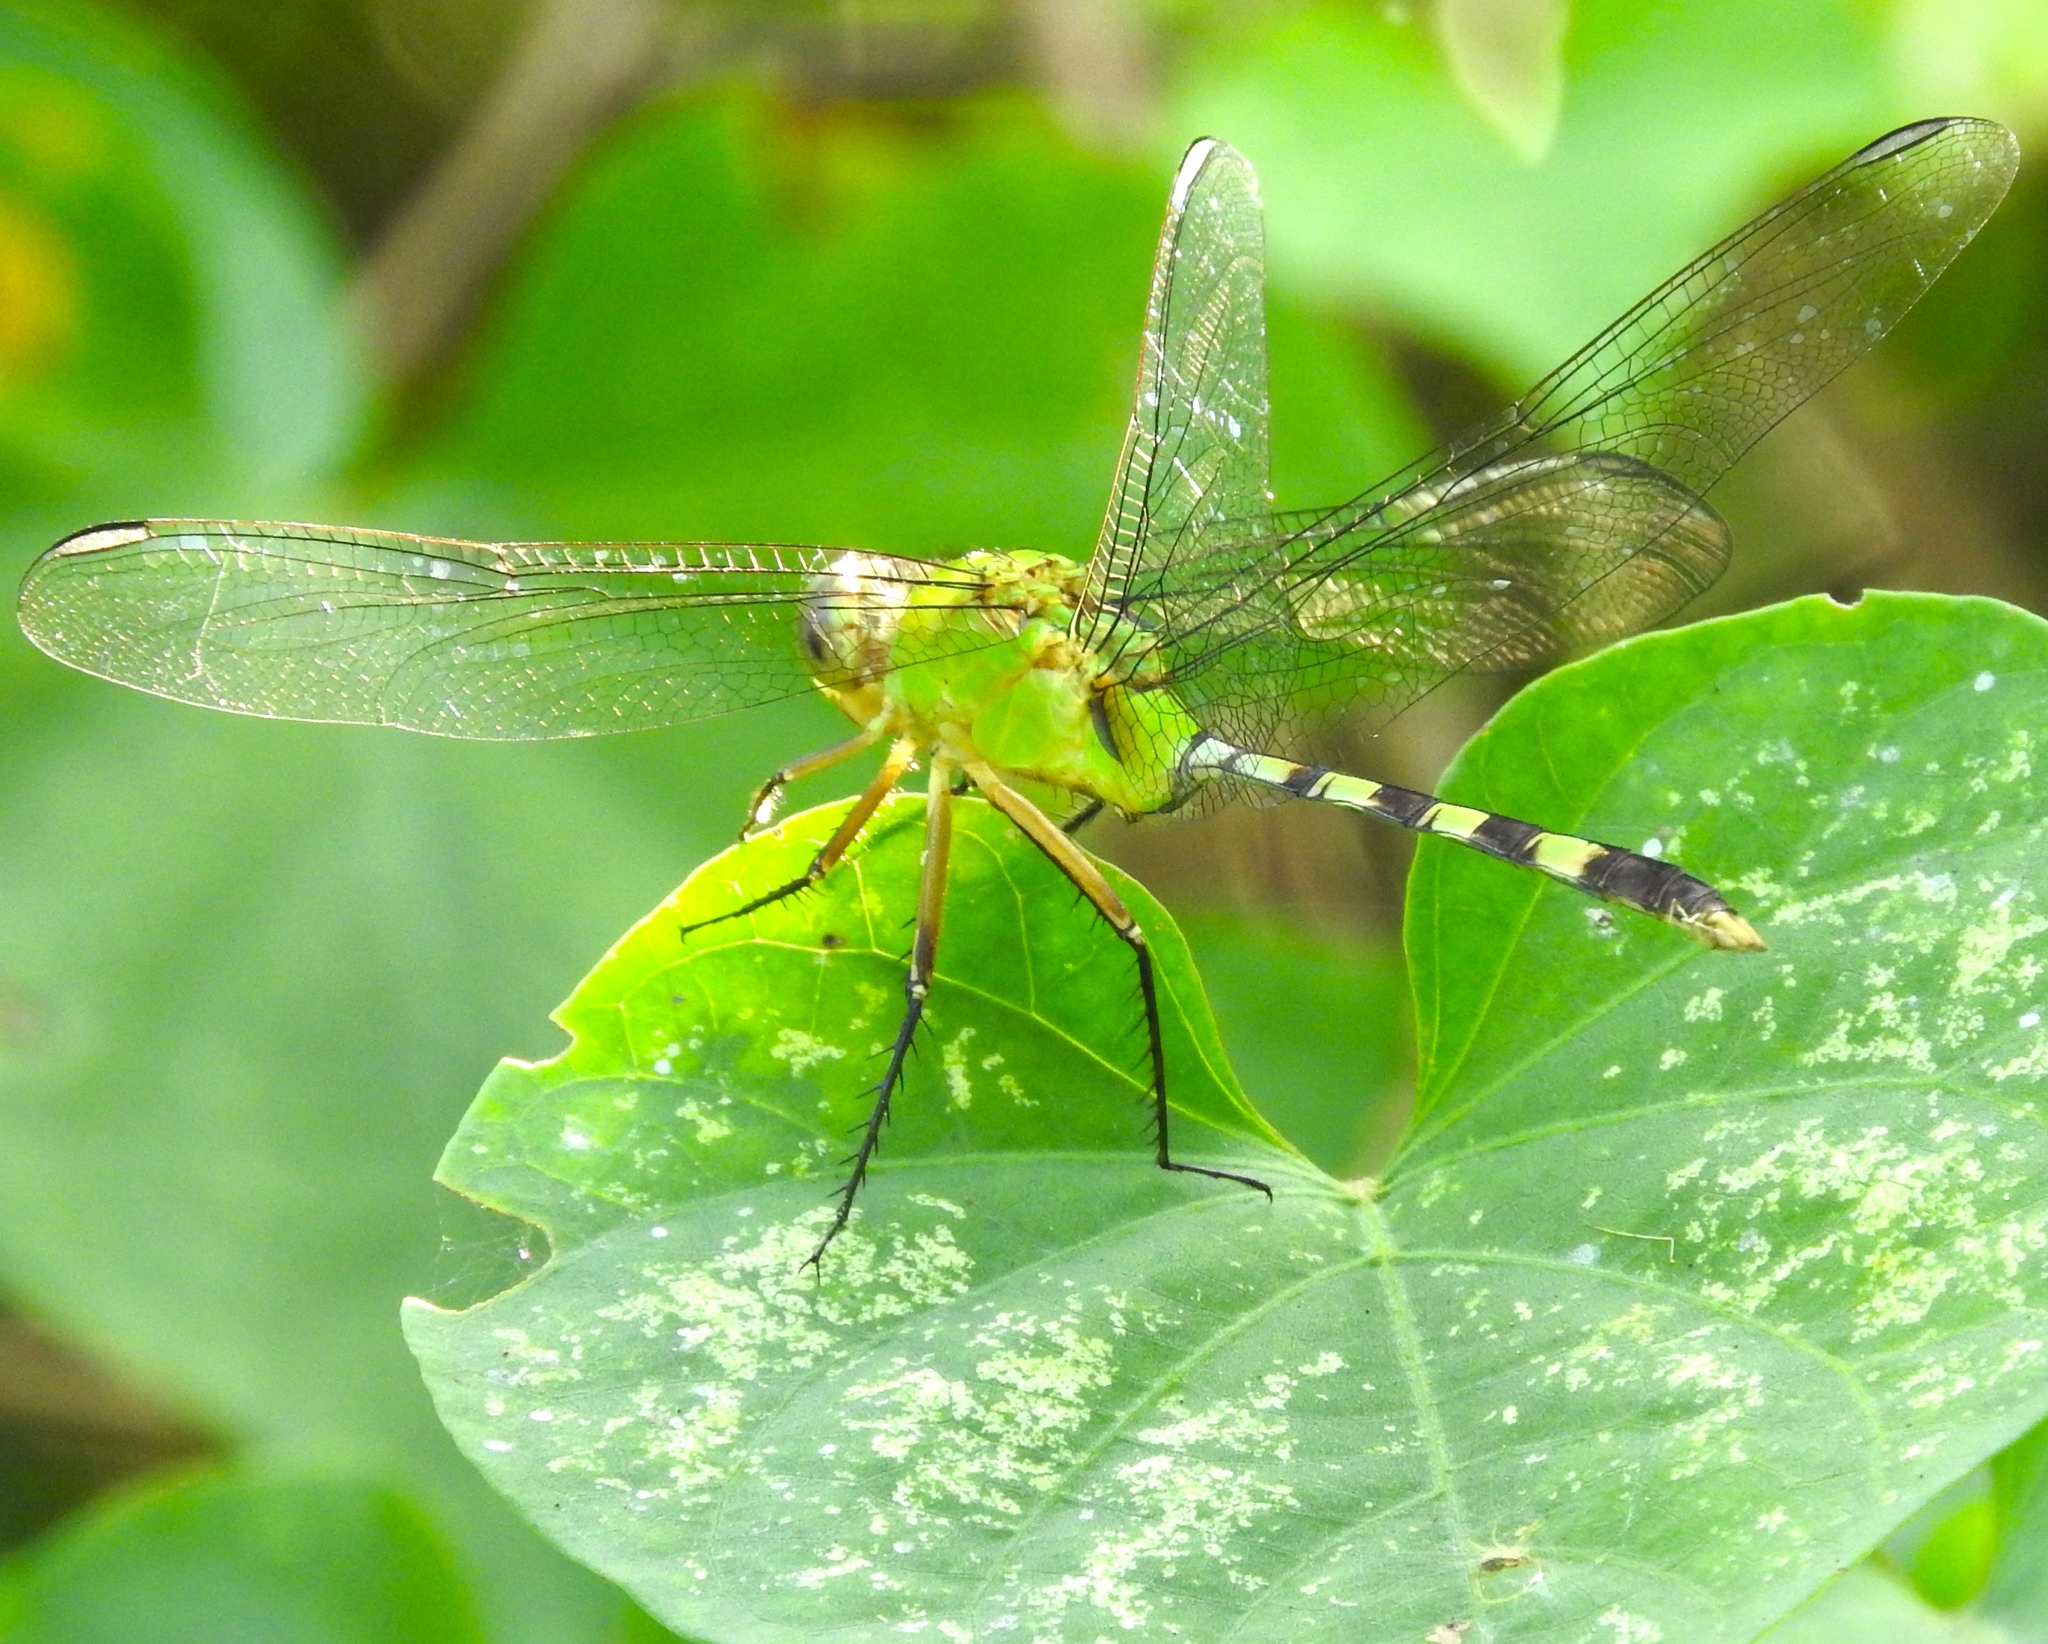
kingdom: Animalia
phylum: Arthropoda
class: Insecta
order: Odonata
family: Libellulidae
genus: Erythemis
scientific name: Erythemis vesiculosa
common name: Great pondhawk
